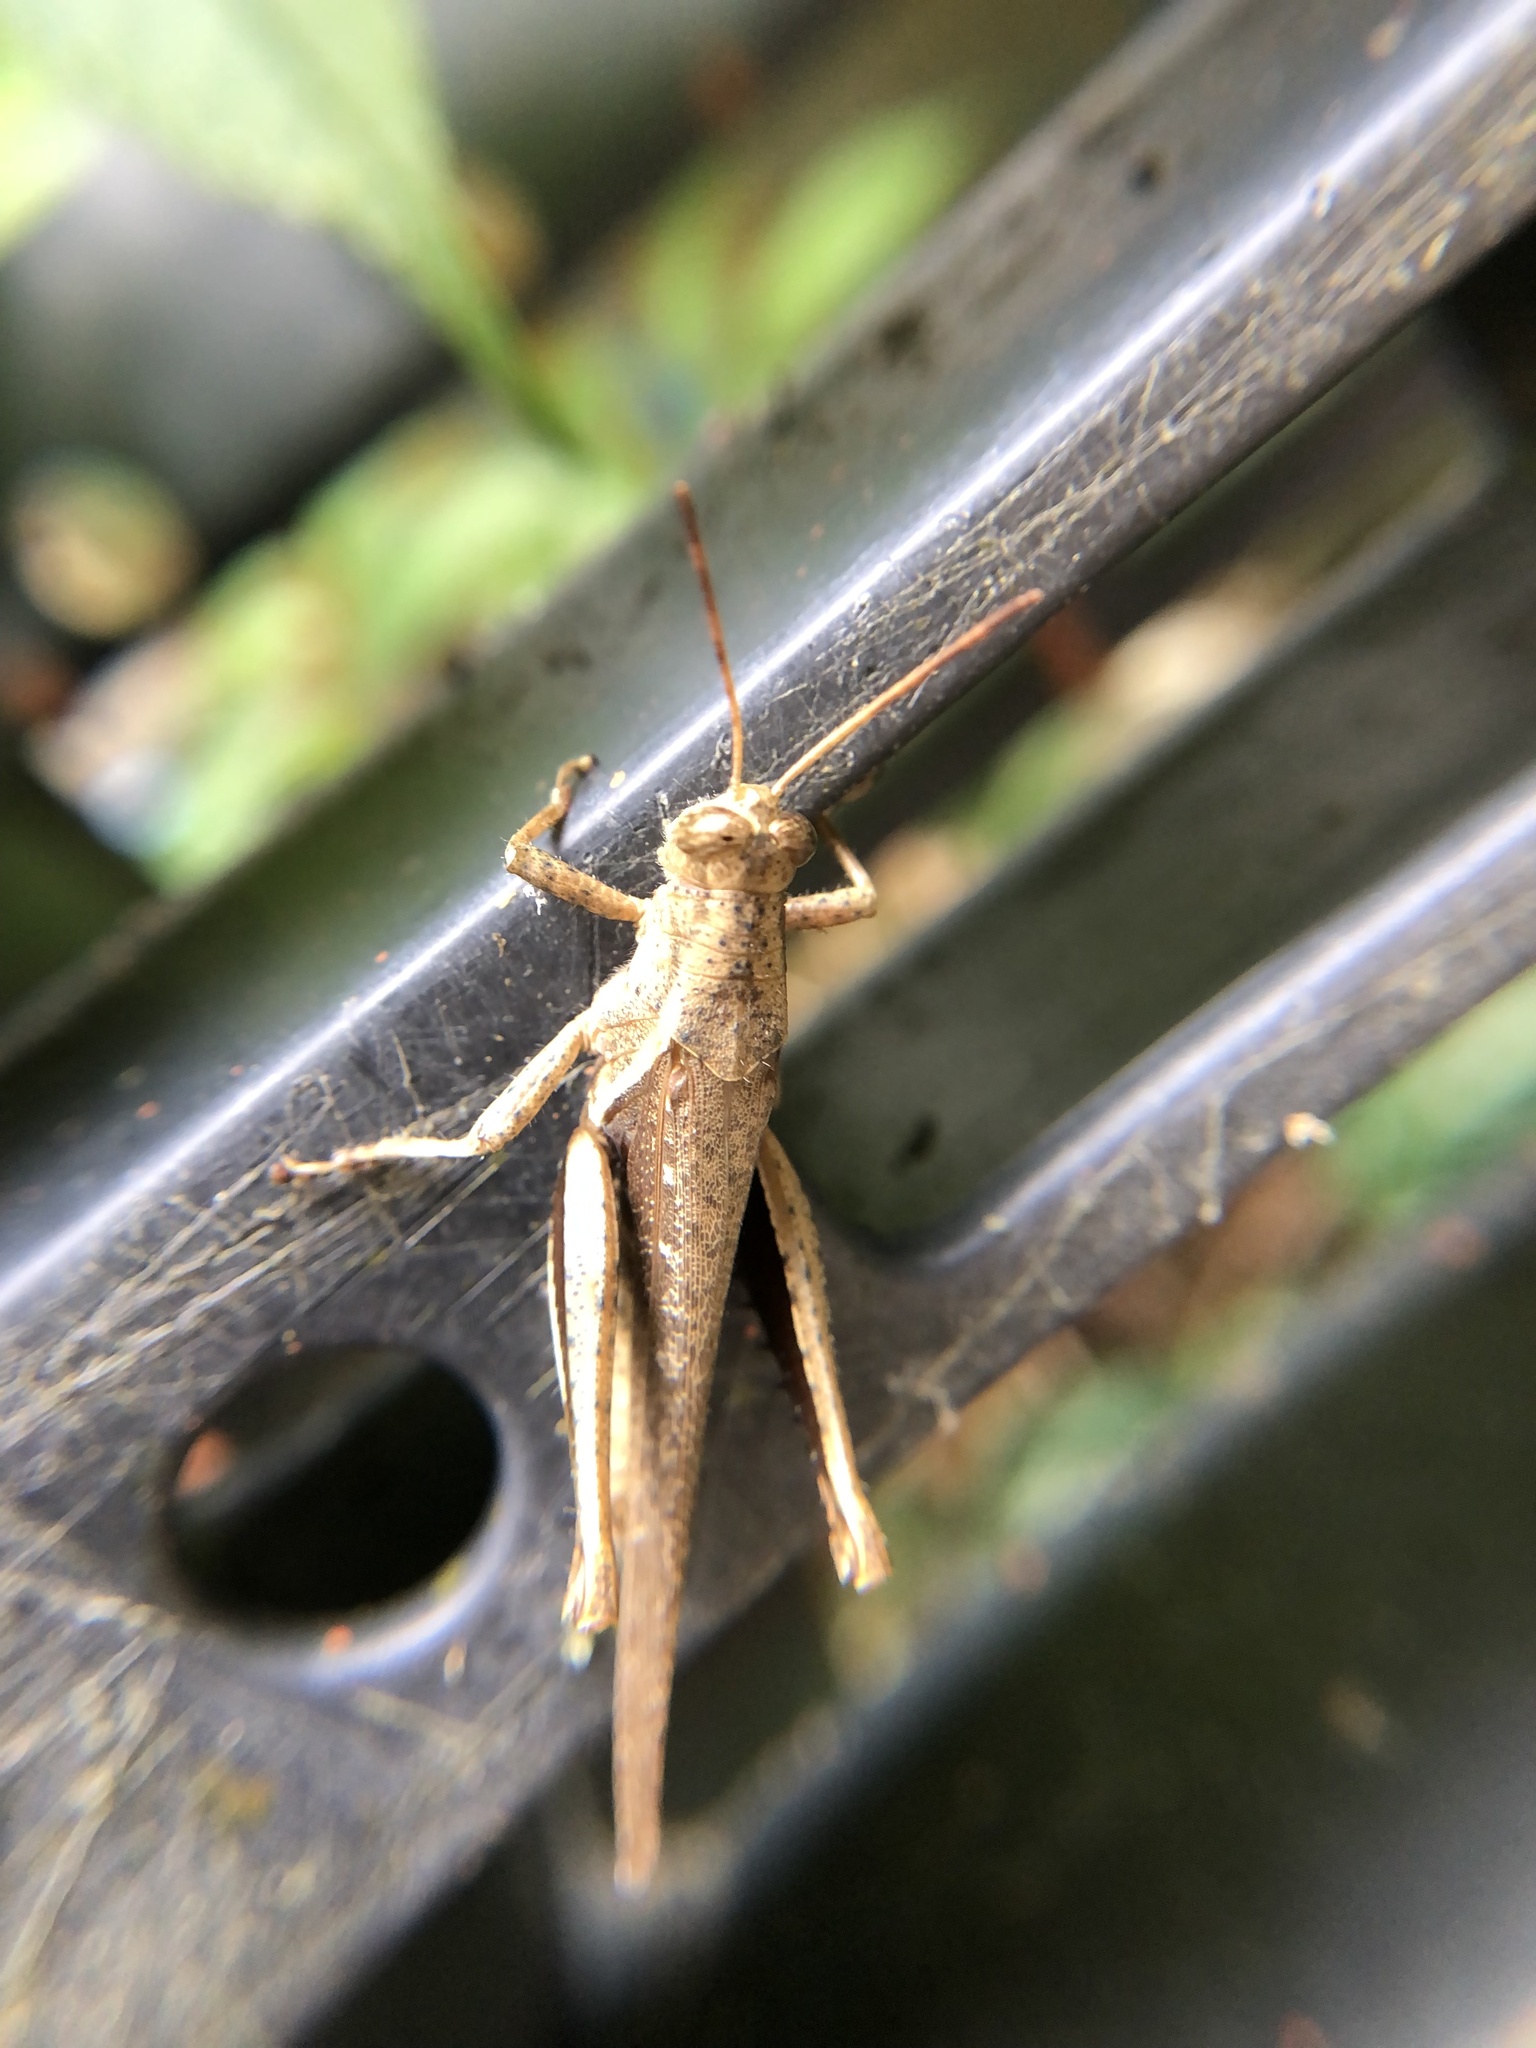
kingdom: Animalia
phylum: Arthropoda
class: Insecta
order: Orthoptera
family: Acrididae
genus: Abracris
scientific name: Abracris flavolineata
